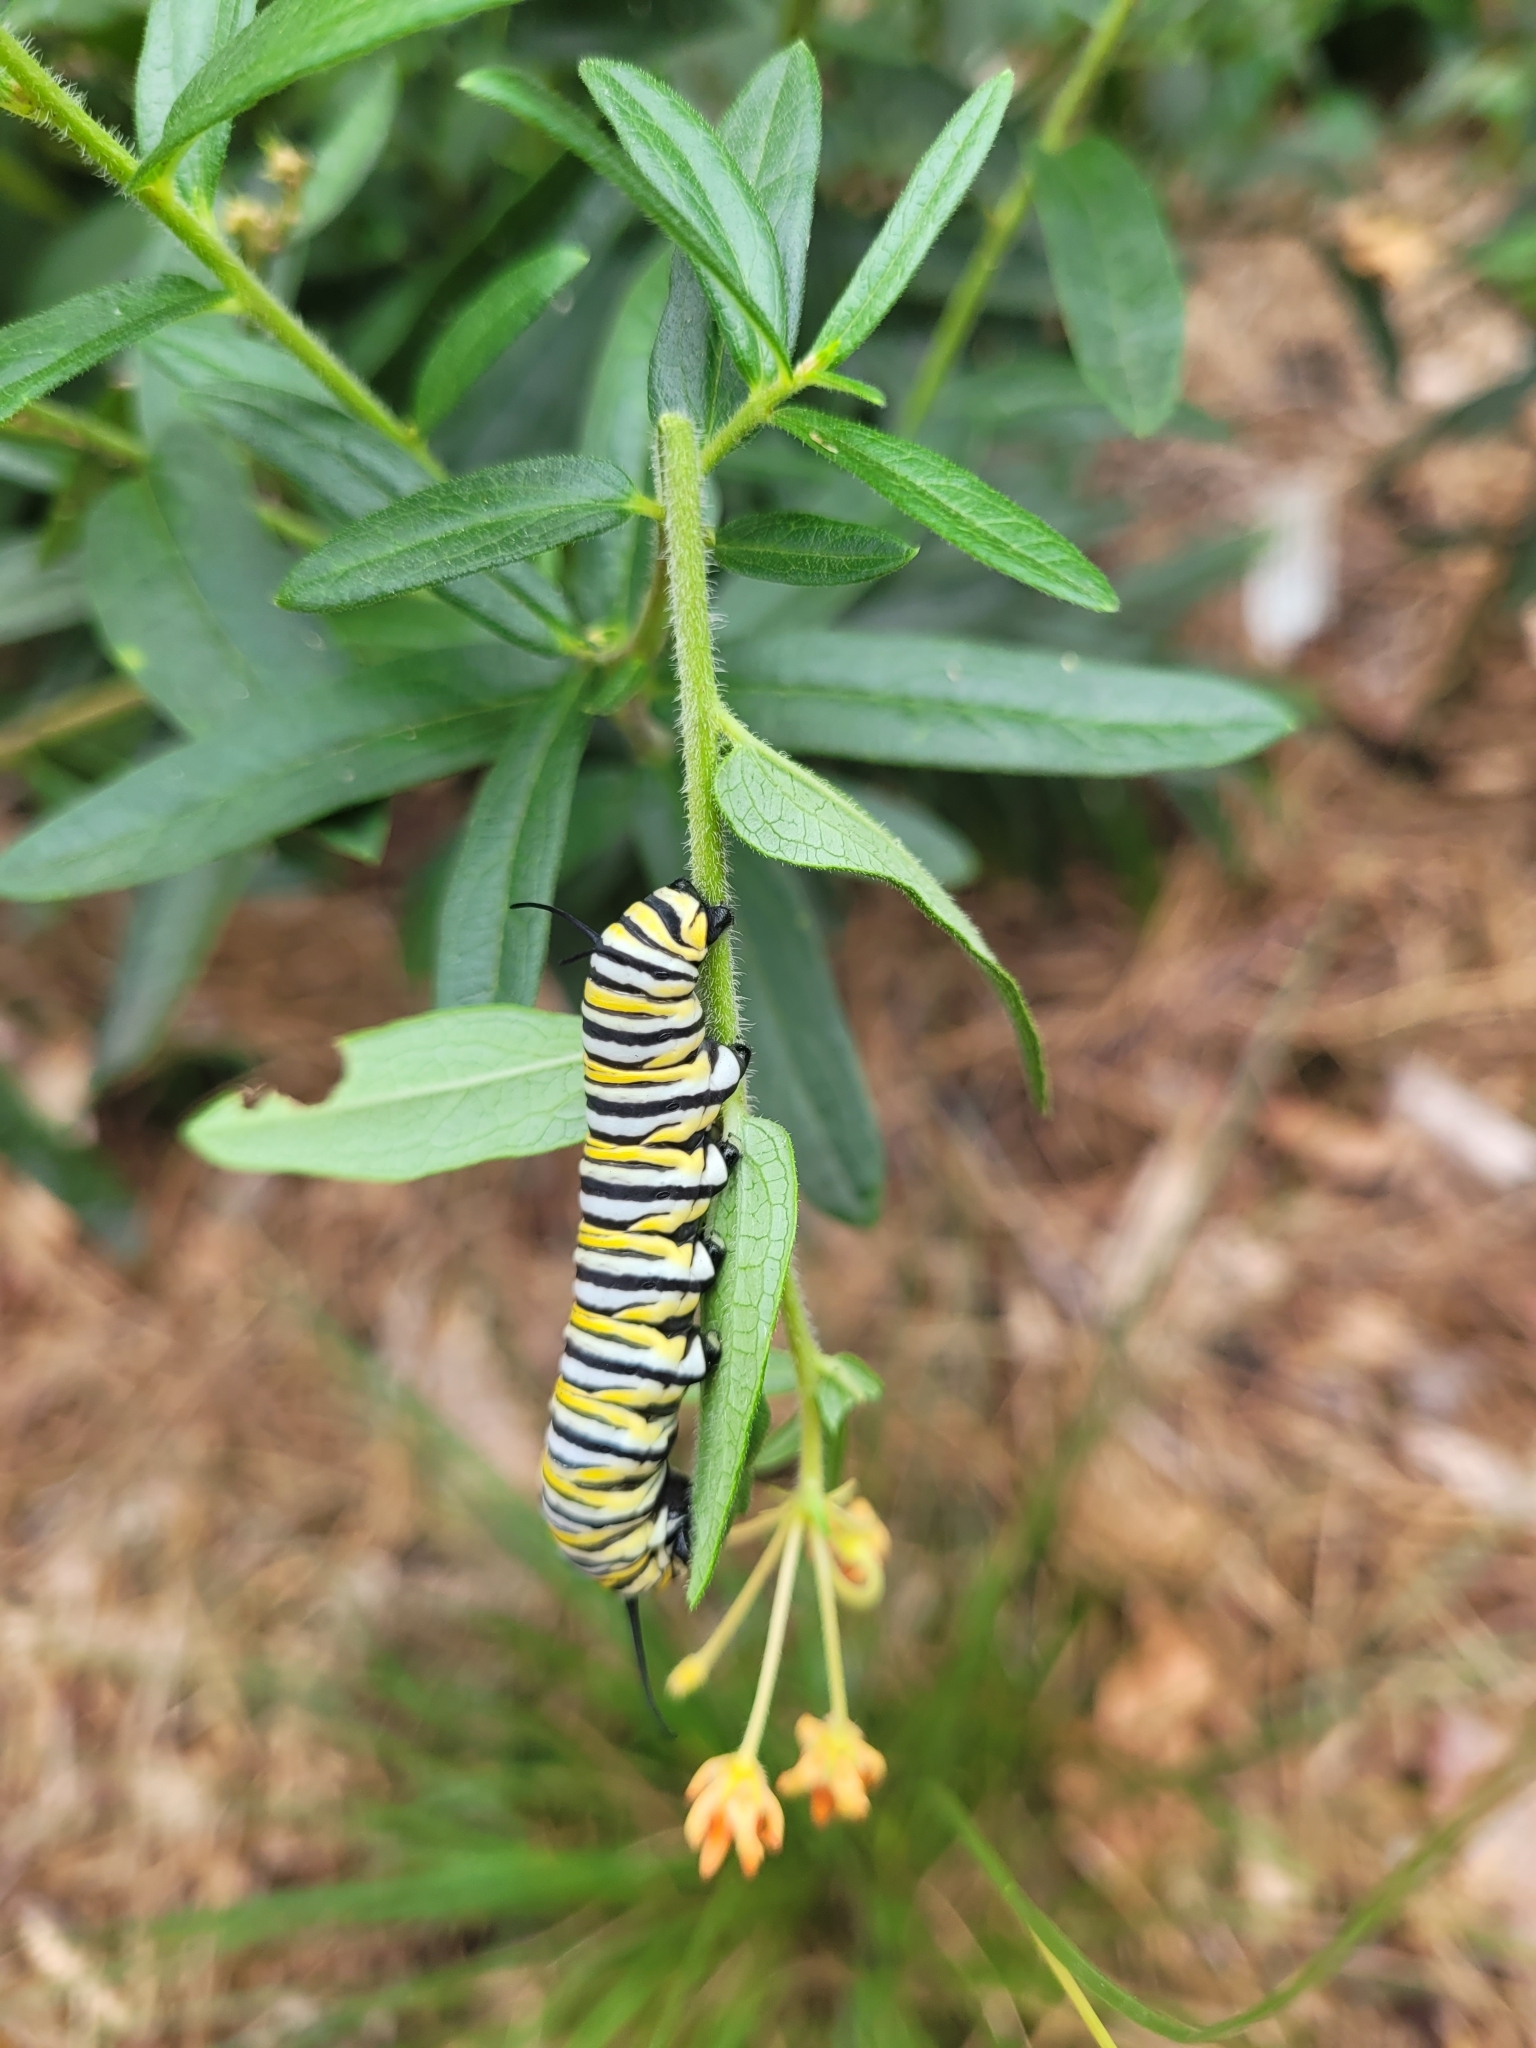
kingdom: Animalia
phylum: Arthropoda
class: Insecta
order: Lepidoptera
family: Nymphalidae
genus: Danaus
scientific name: Danaus plexippus
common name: Monarch
